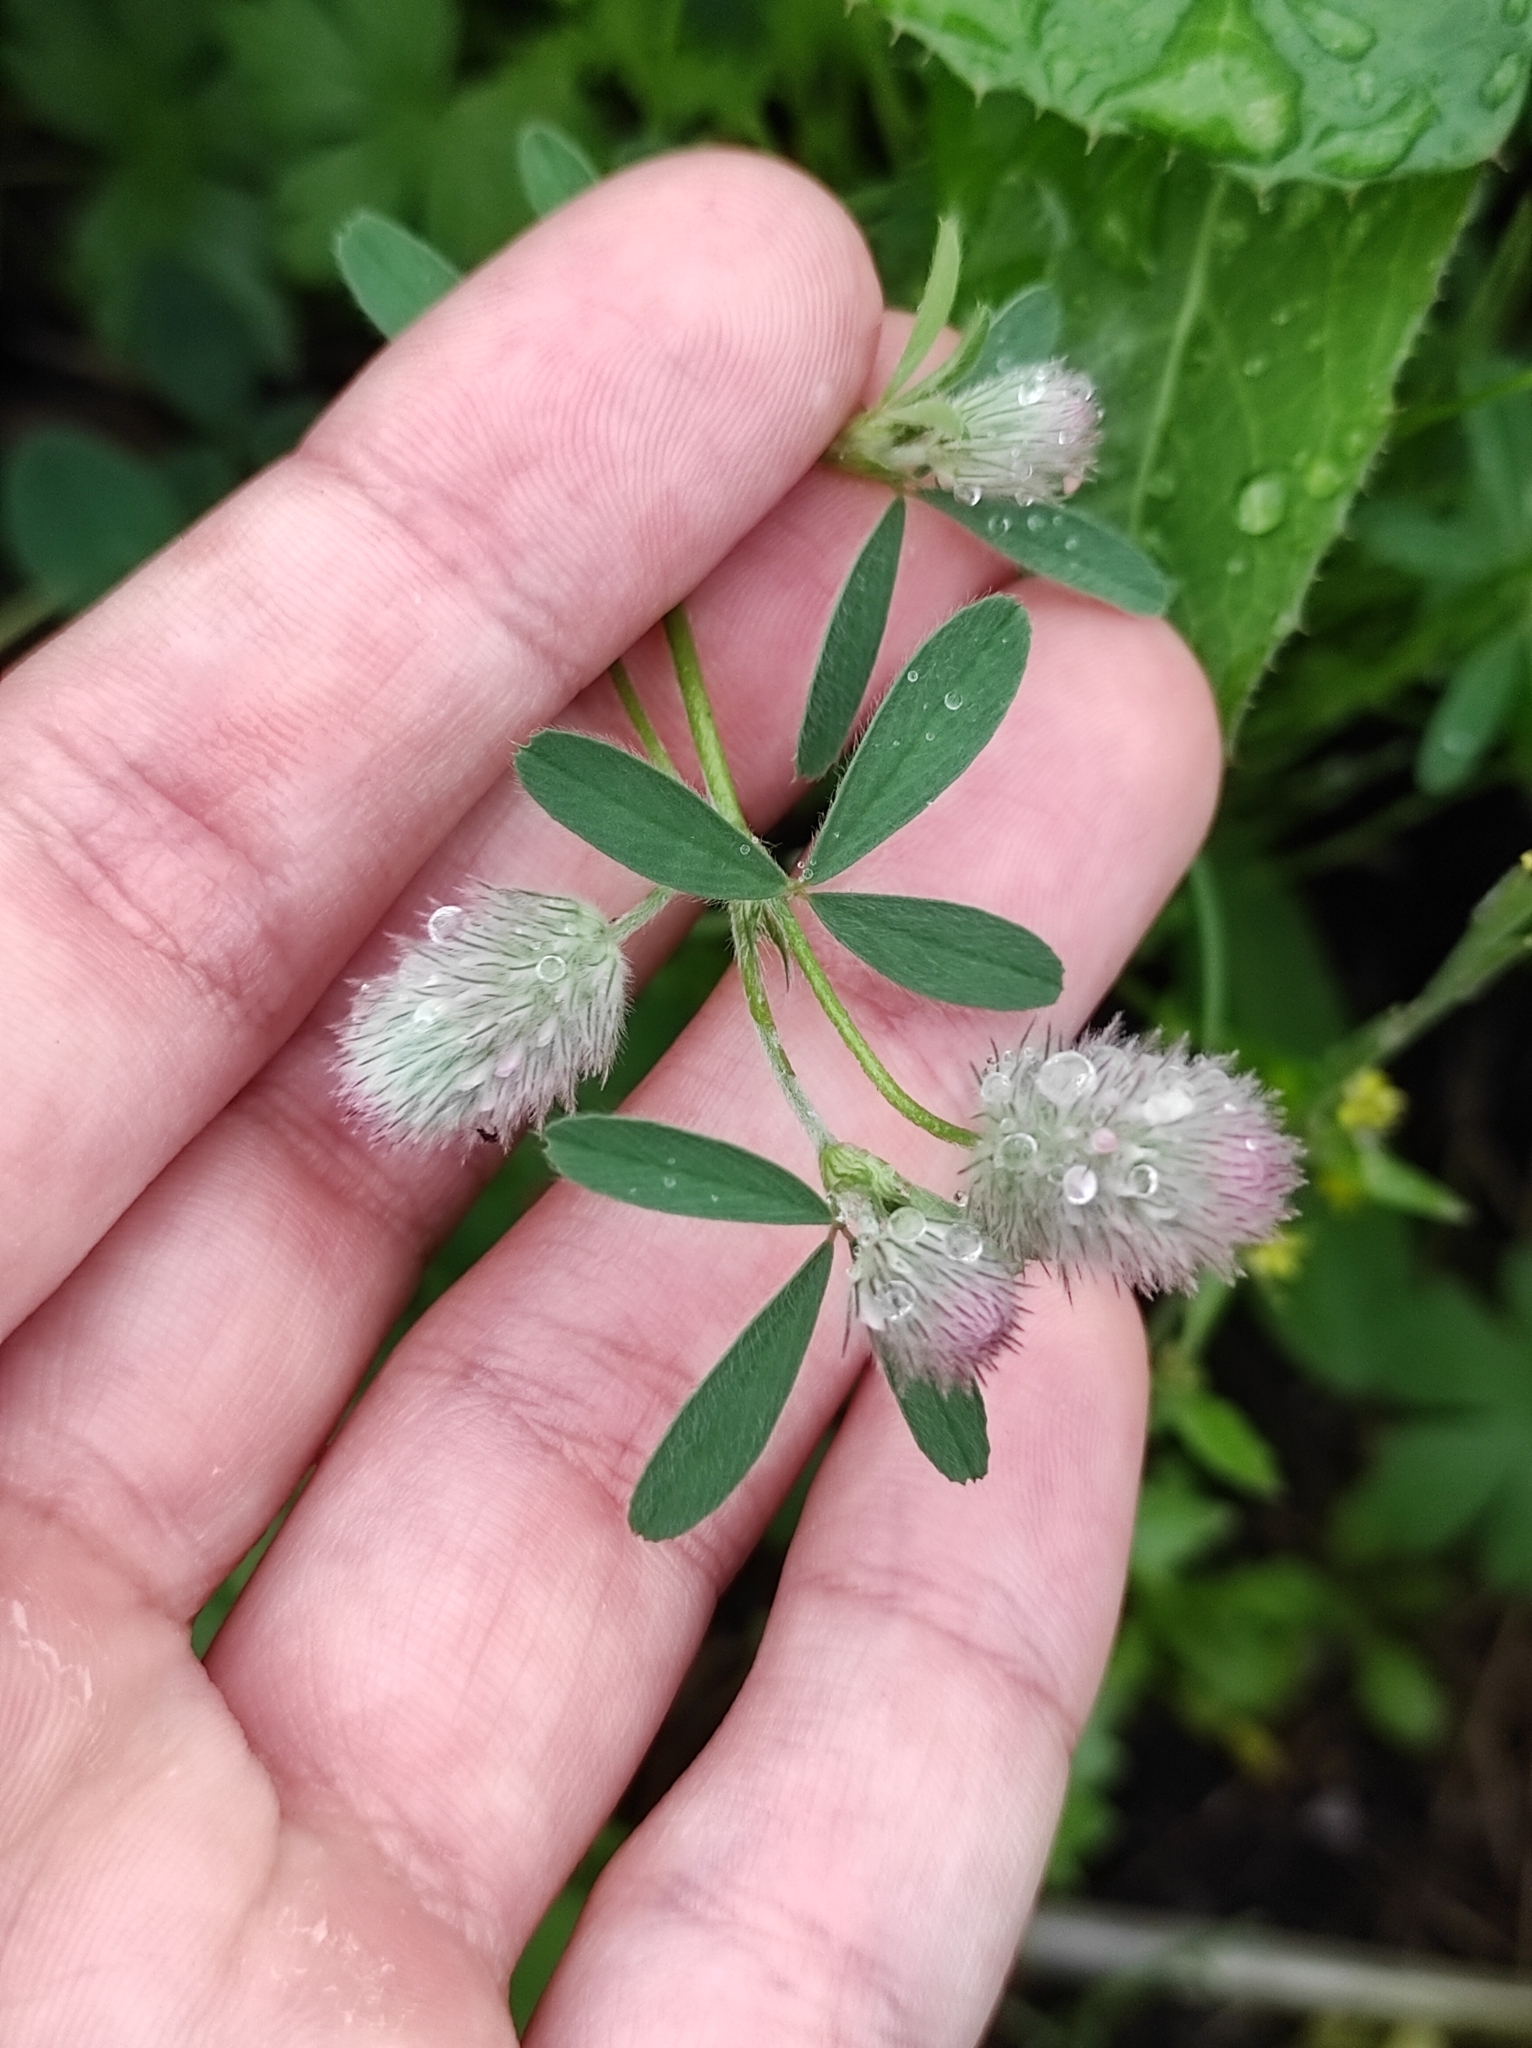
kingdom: Plantae
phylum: Tracheophyta
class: Magnoliopsida
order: Fabales
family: Fabaceae
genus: Trifolium
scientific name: Trifolium arvense
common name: Hare's-foot clover
